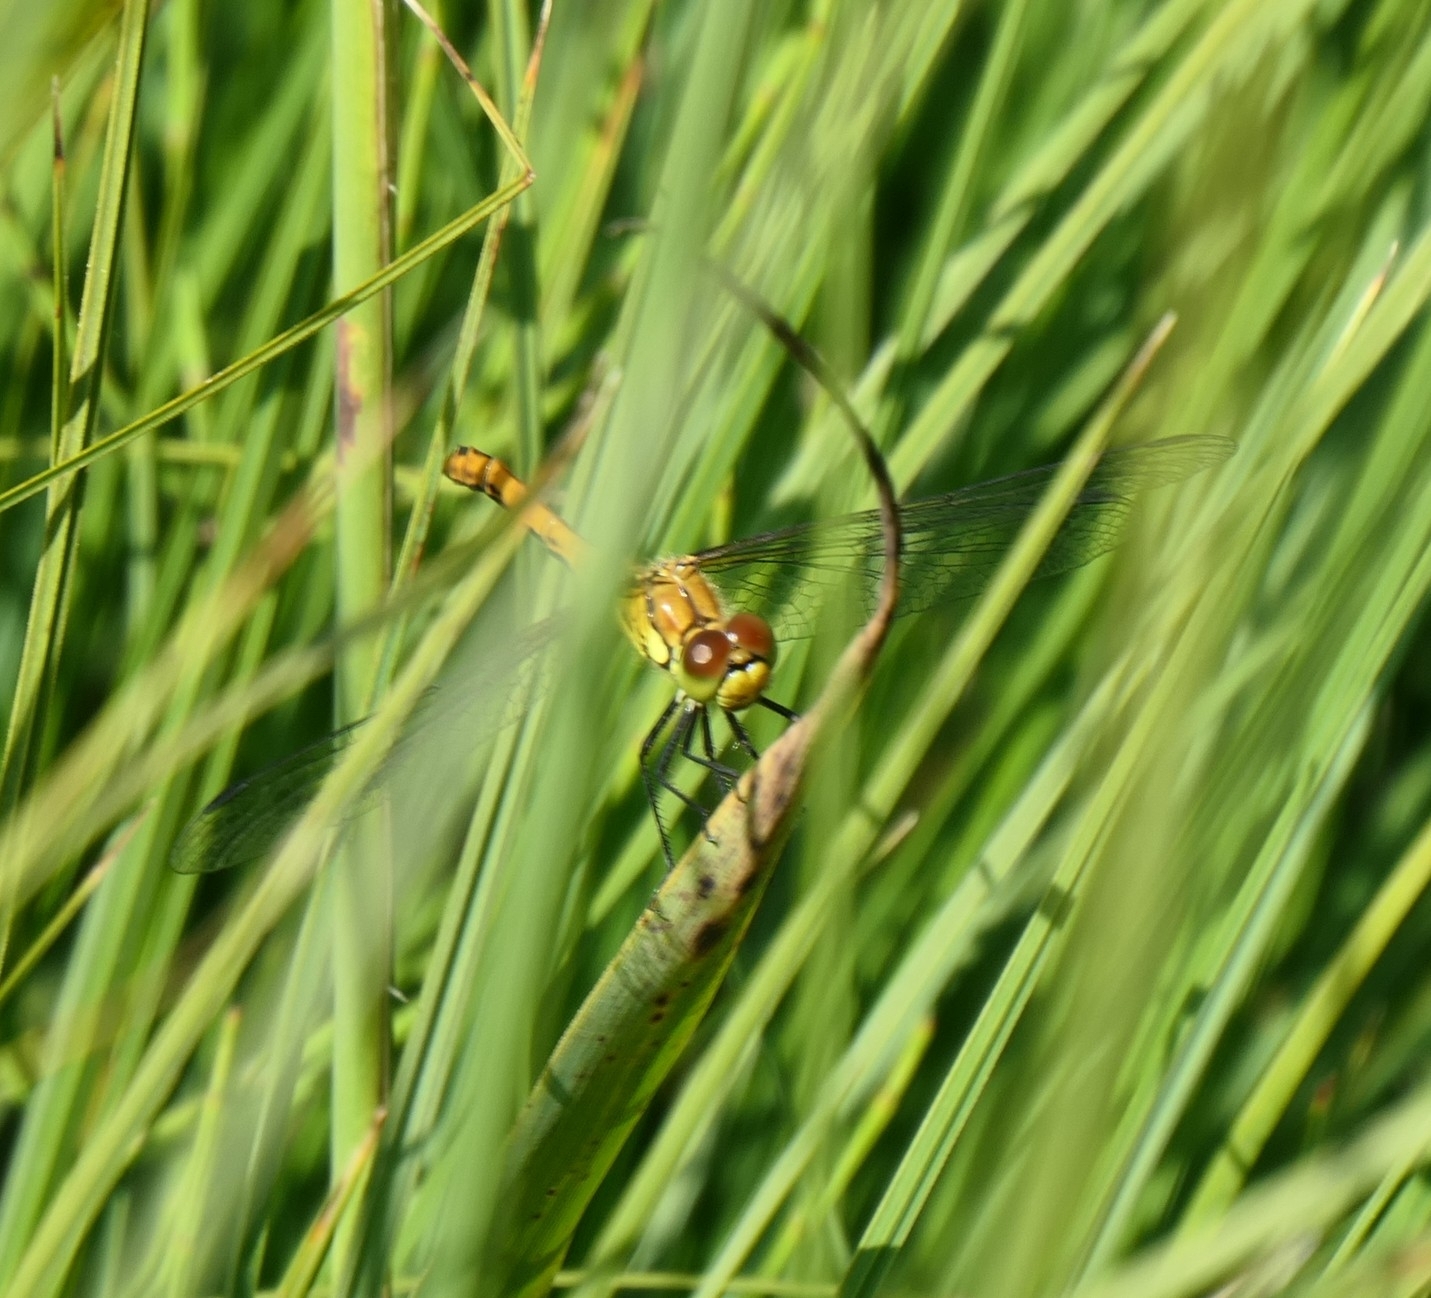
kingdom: Animalia
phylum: Arthropoda
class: Insecta
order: Odonata
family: Libellulidae
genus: Sympetrum
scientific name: Sympetrum sanguineum
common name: Ruddy darter
